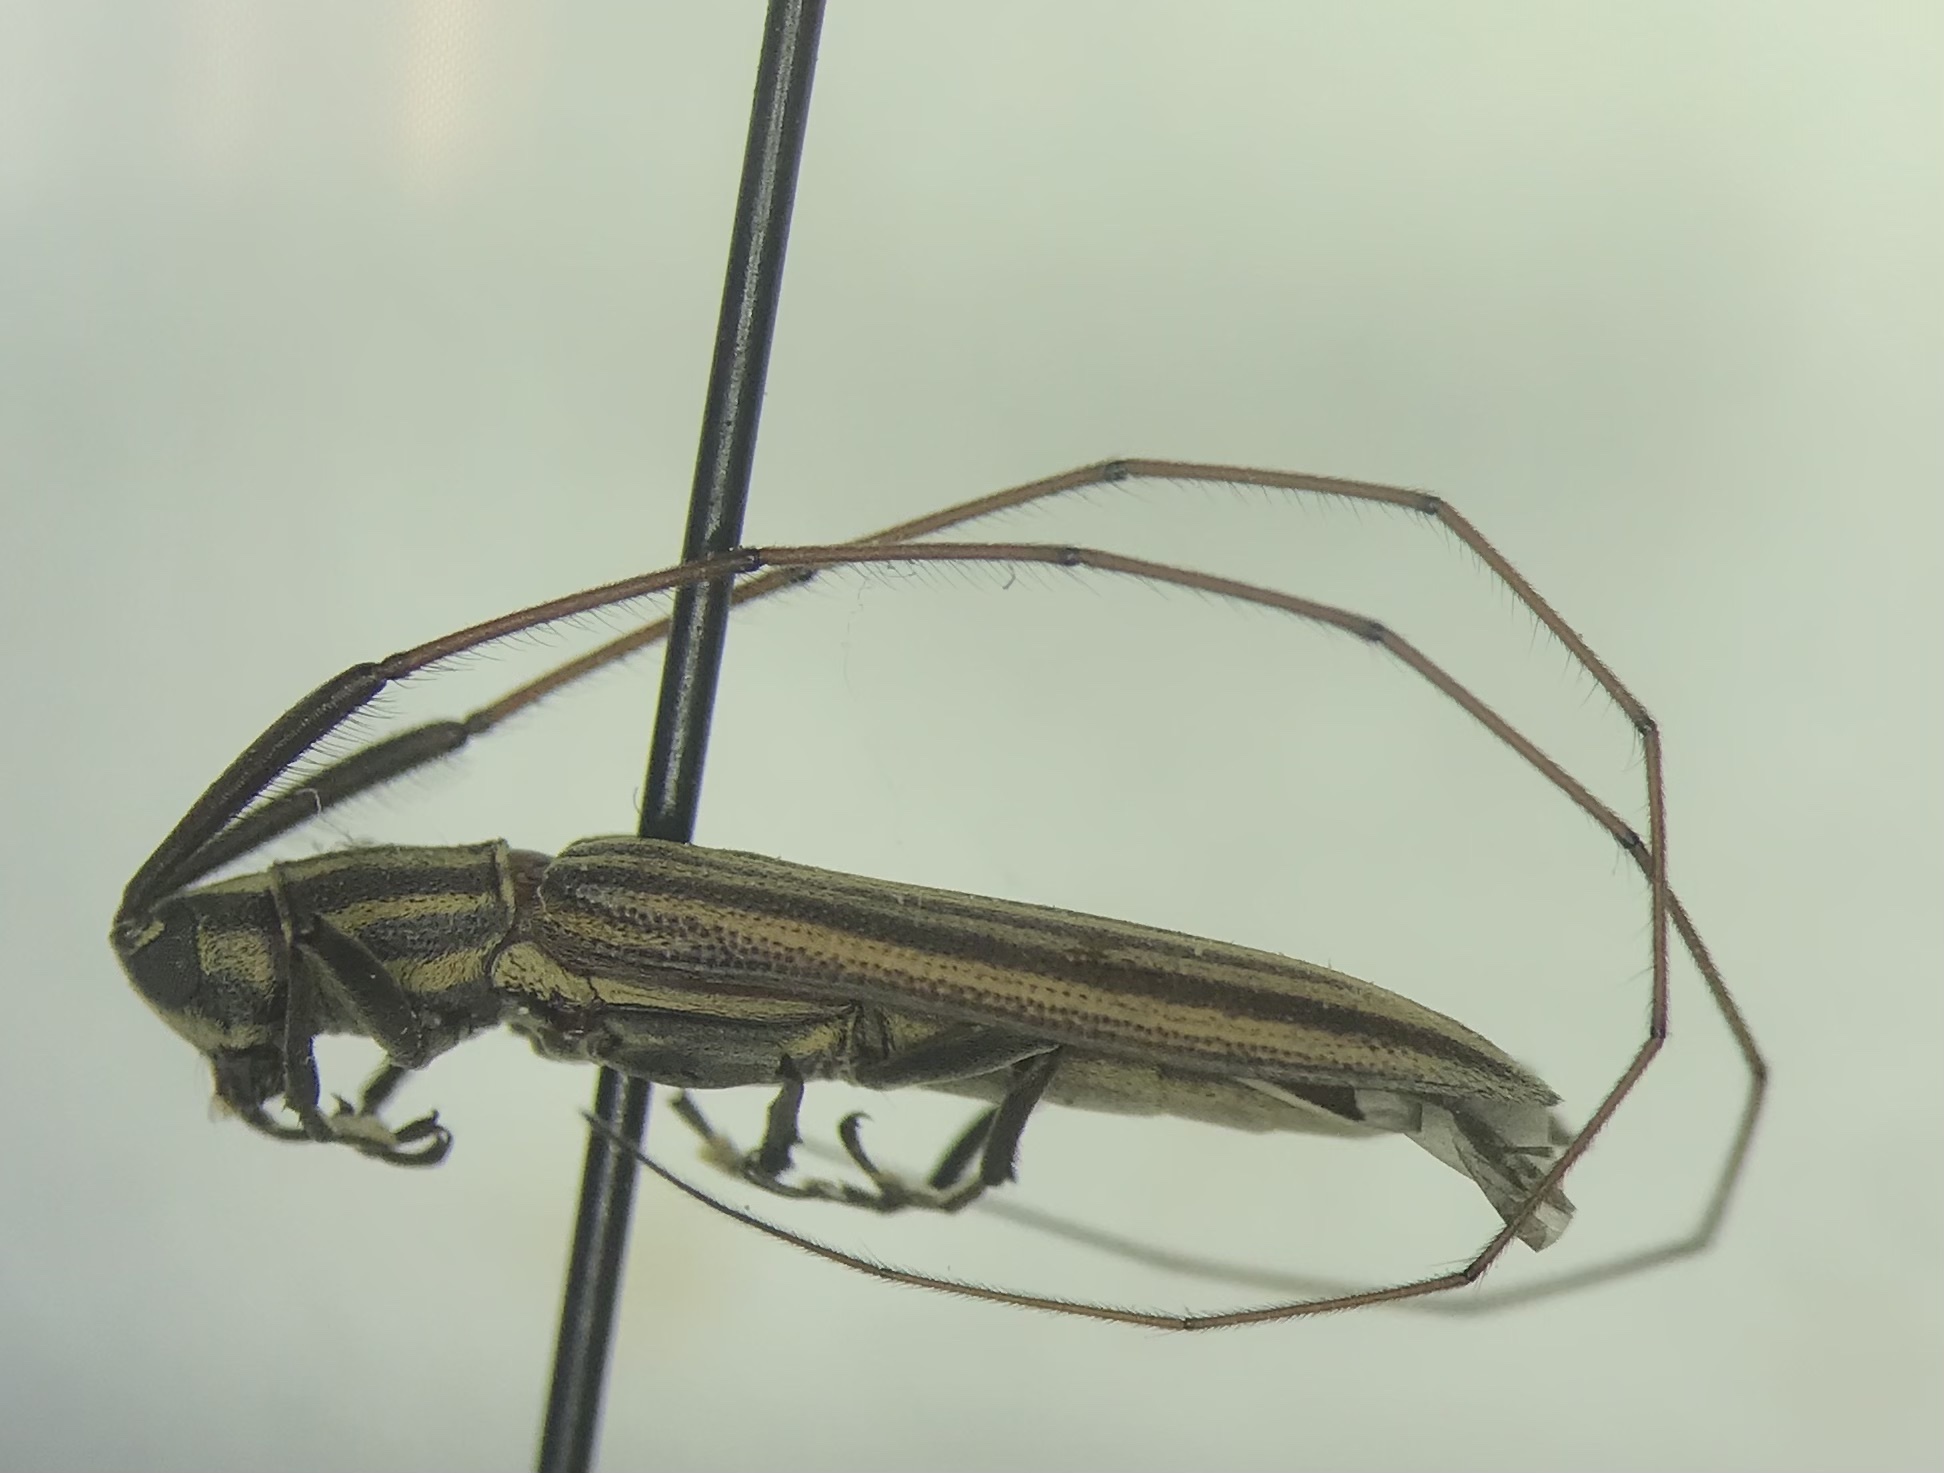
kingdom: Animalia
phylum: Arthropoda
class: Insecta
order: Coleoptera
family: Cerambycidae
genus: Hippopsis
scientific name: Hippopsis
